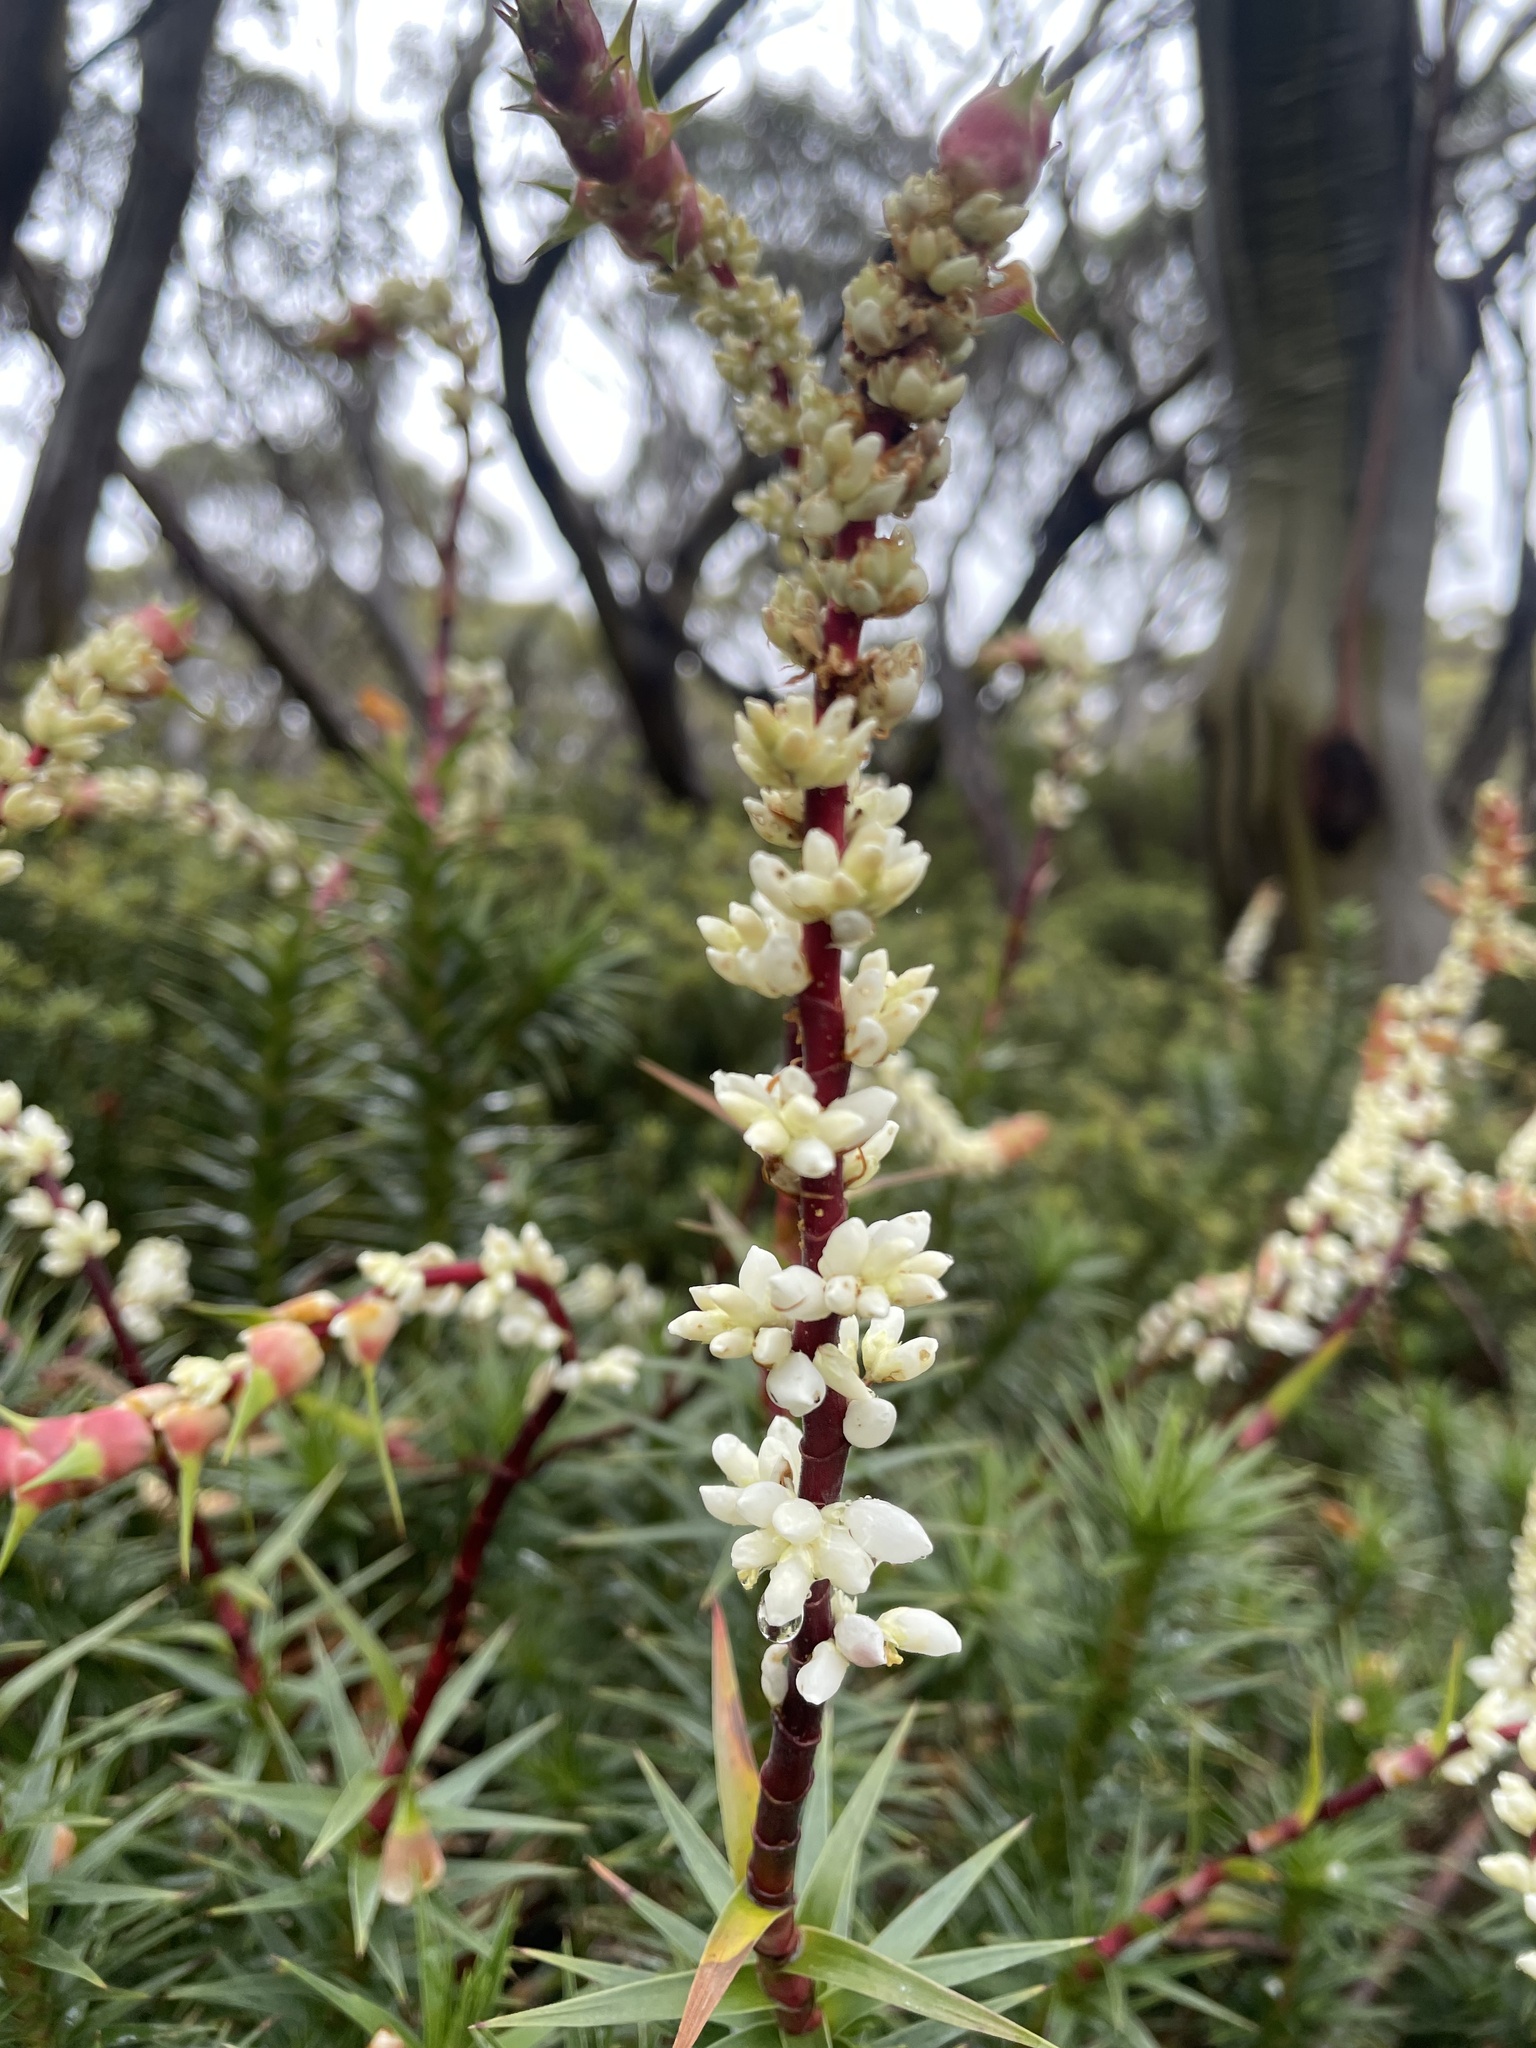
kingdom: Plantae
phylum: Tracheophyta
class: Magnoliopsida
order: Ericales
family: Ericaceae
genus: Dracophyllum
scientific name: Dracophyllum continentis
